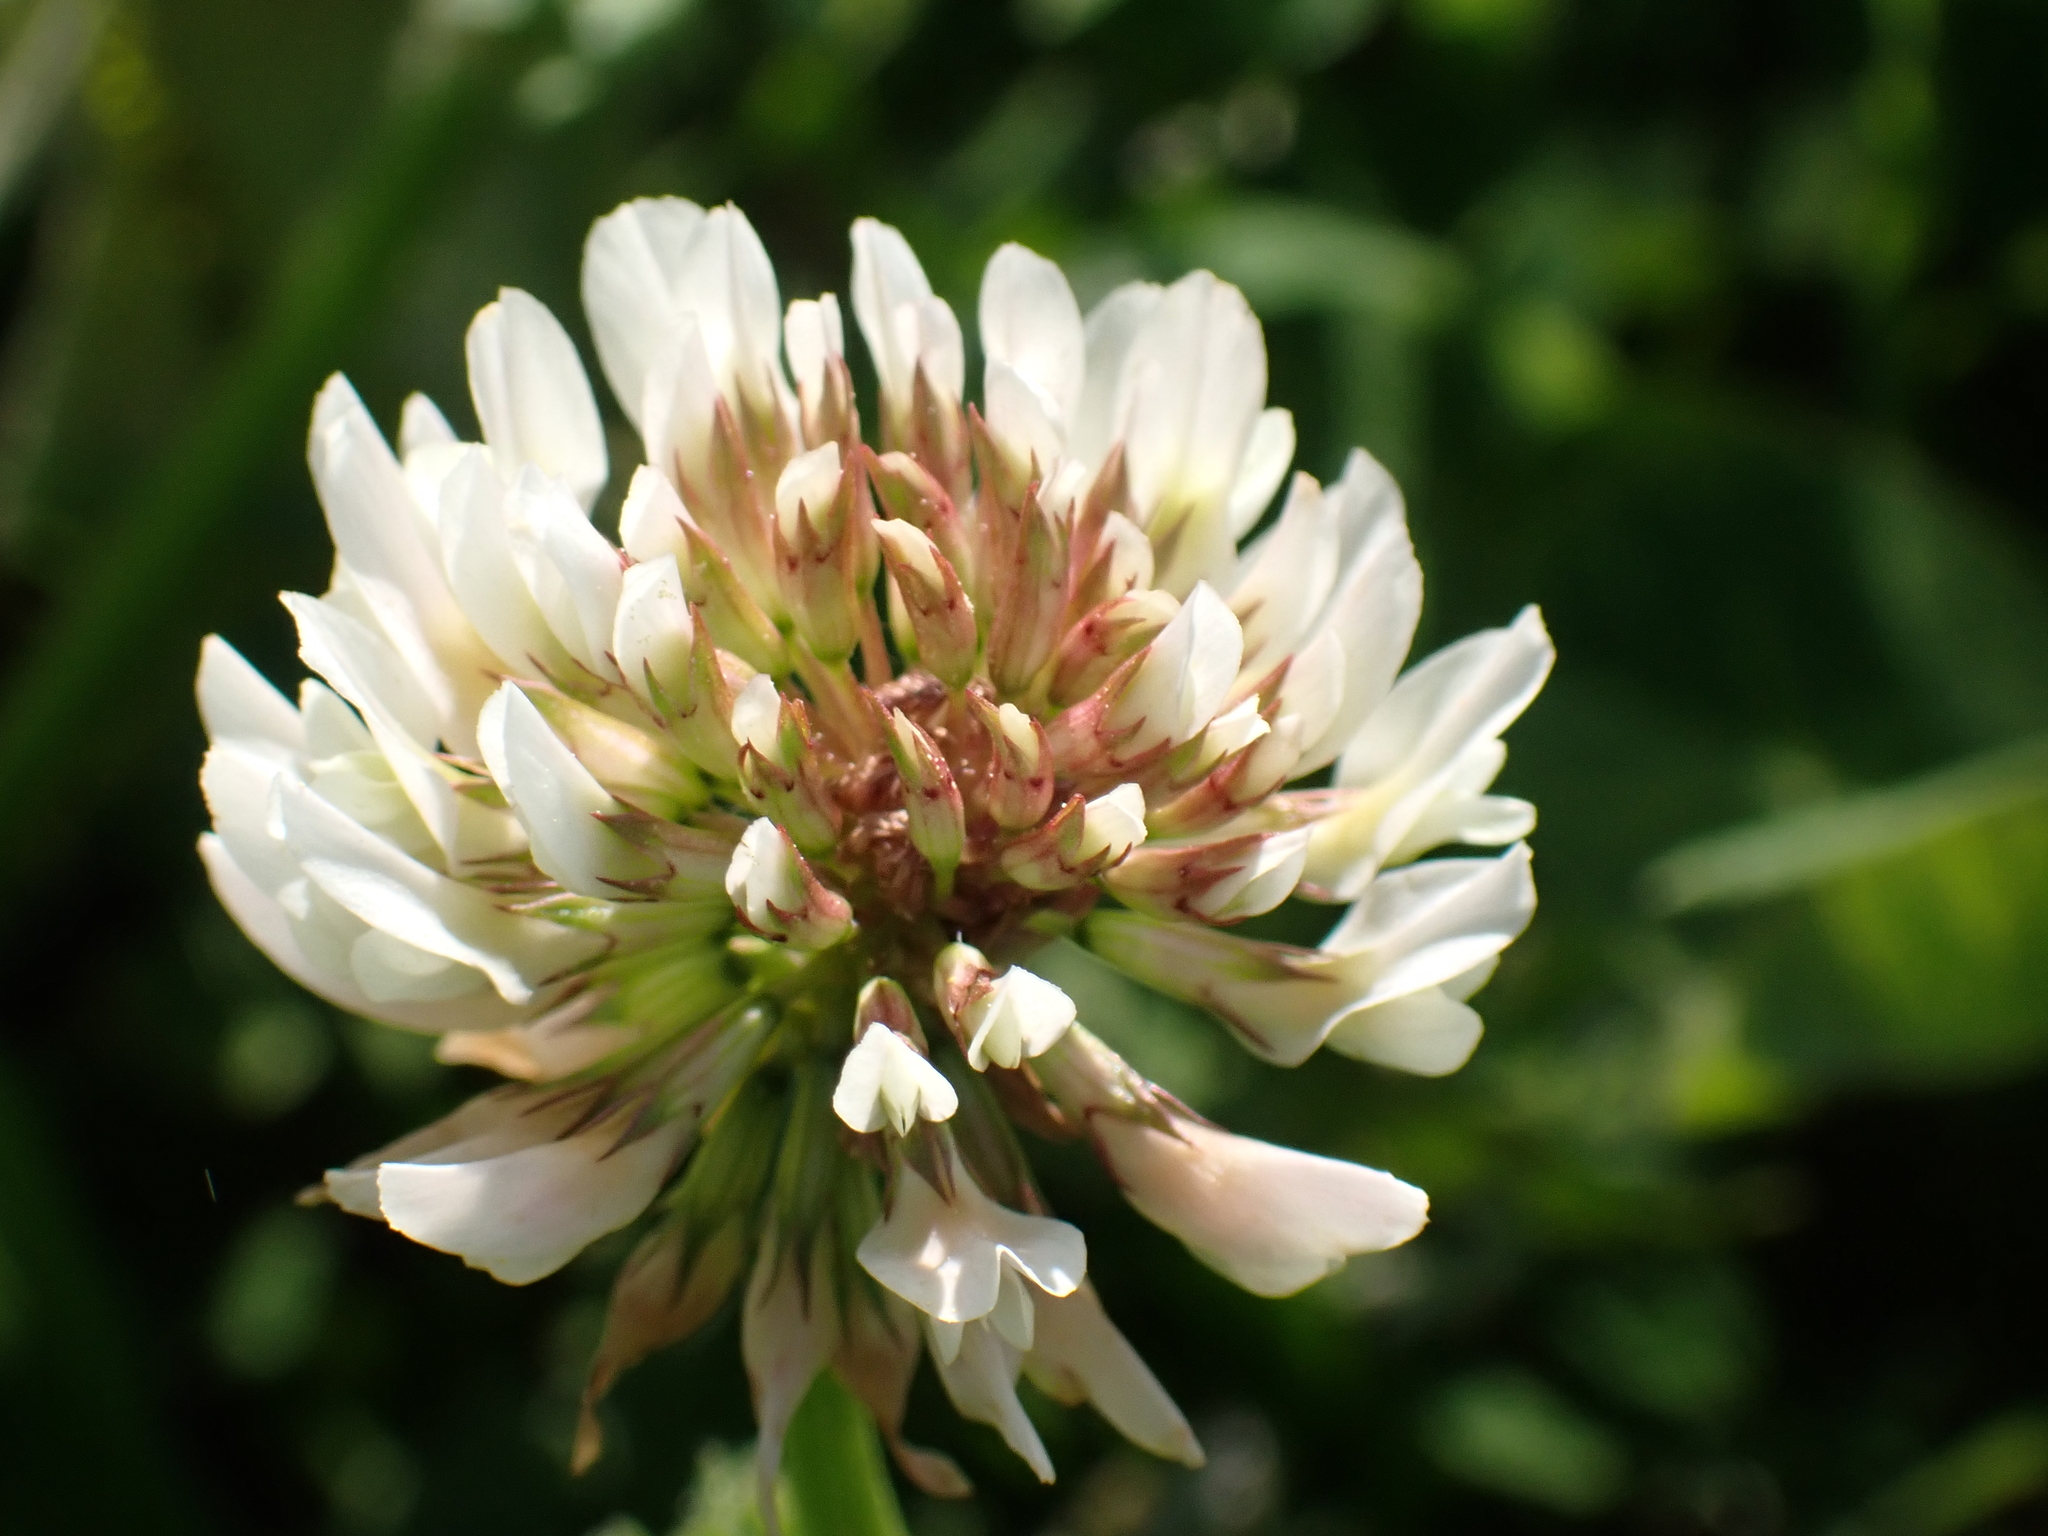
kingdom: Plantae
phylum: Tracheophyta
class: Magnoliopsida
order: Fabales
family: Fabaceae
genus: Trifolium
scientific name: Trifolium repens
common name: White clover
